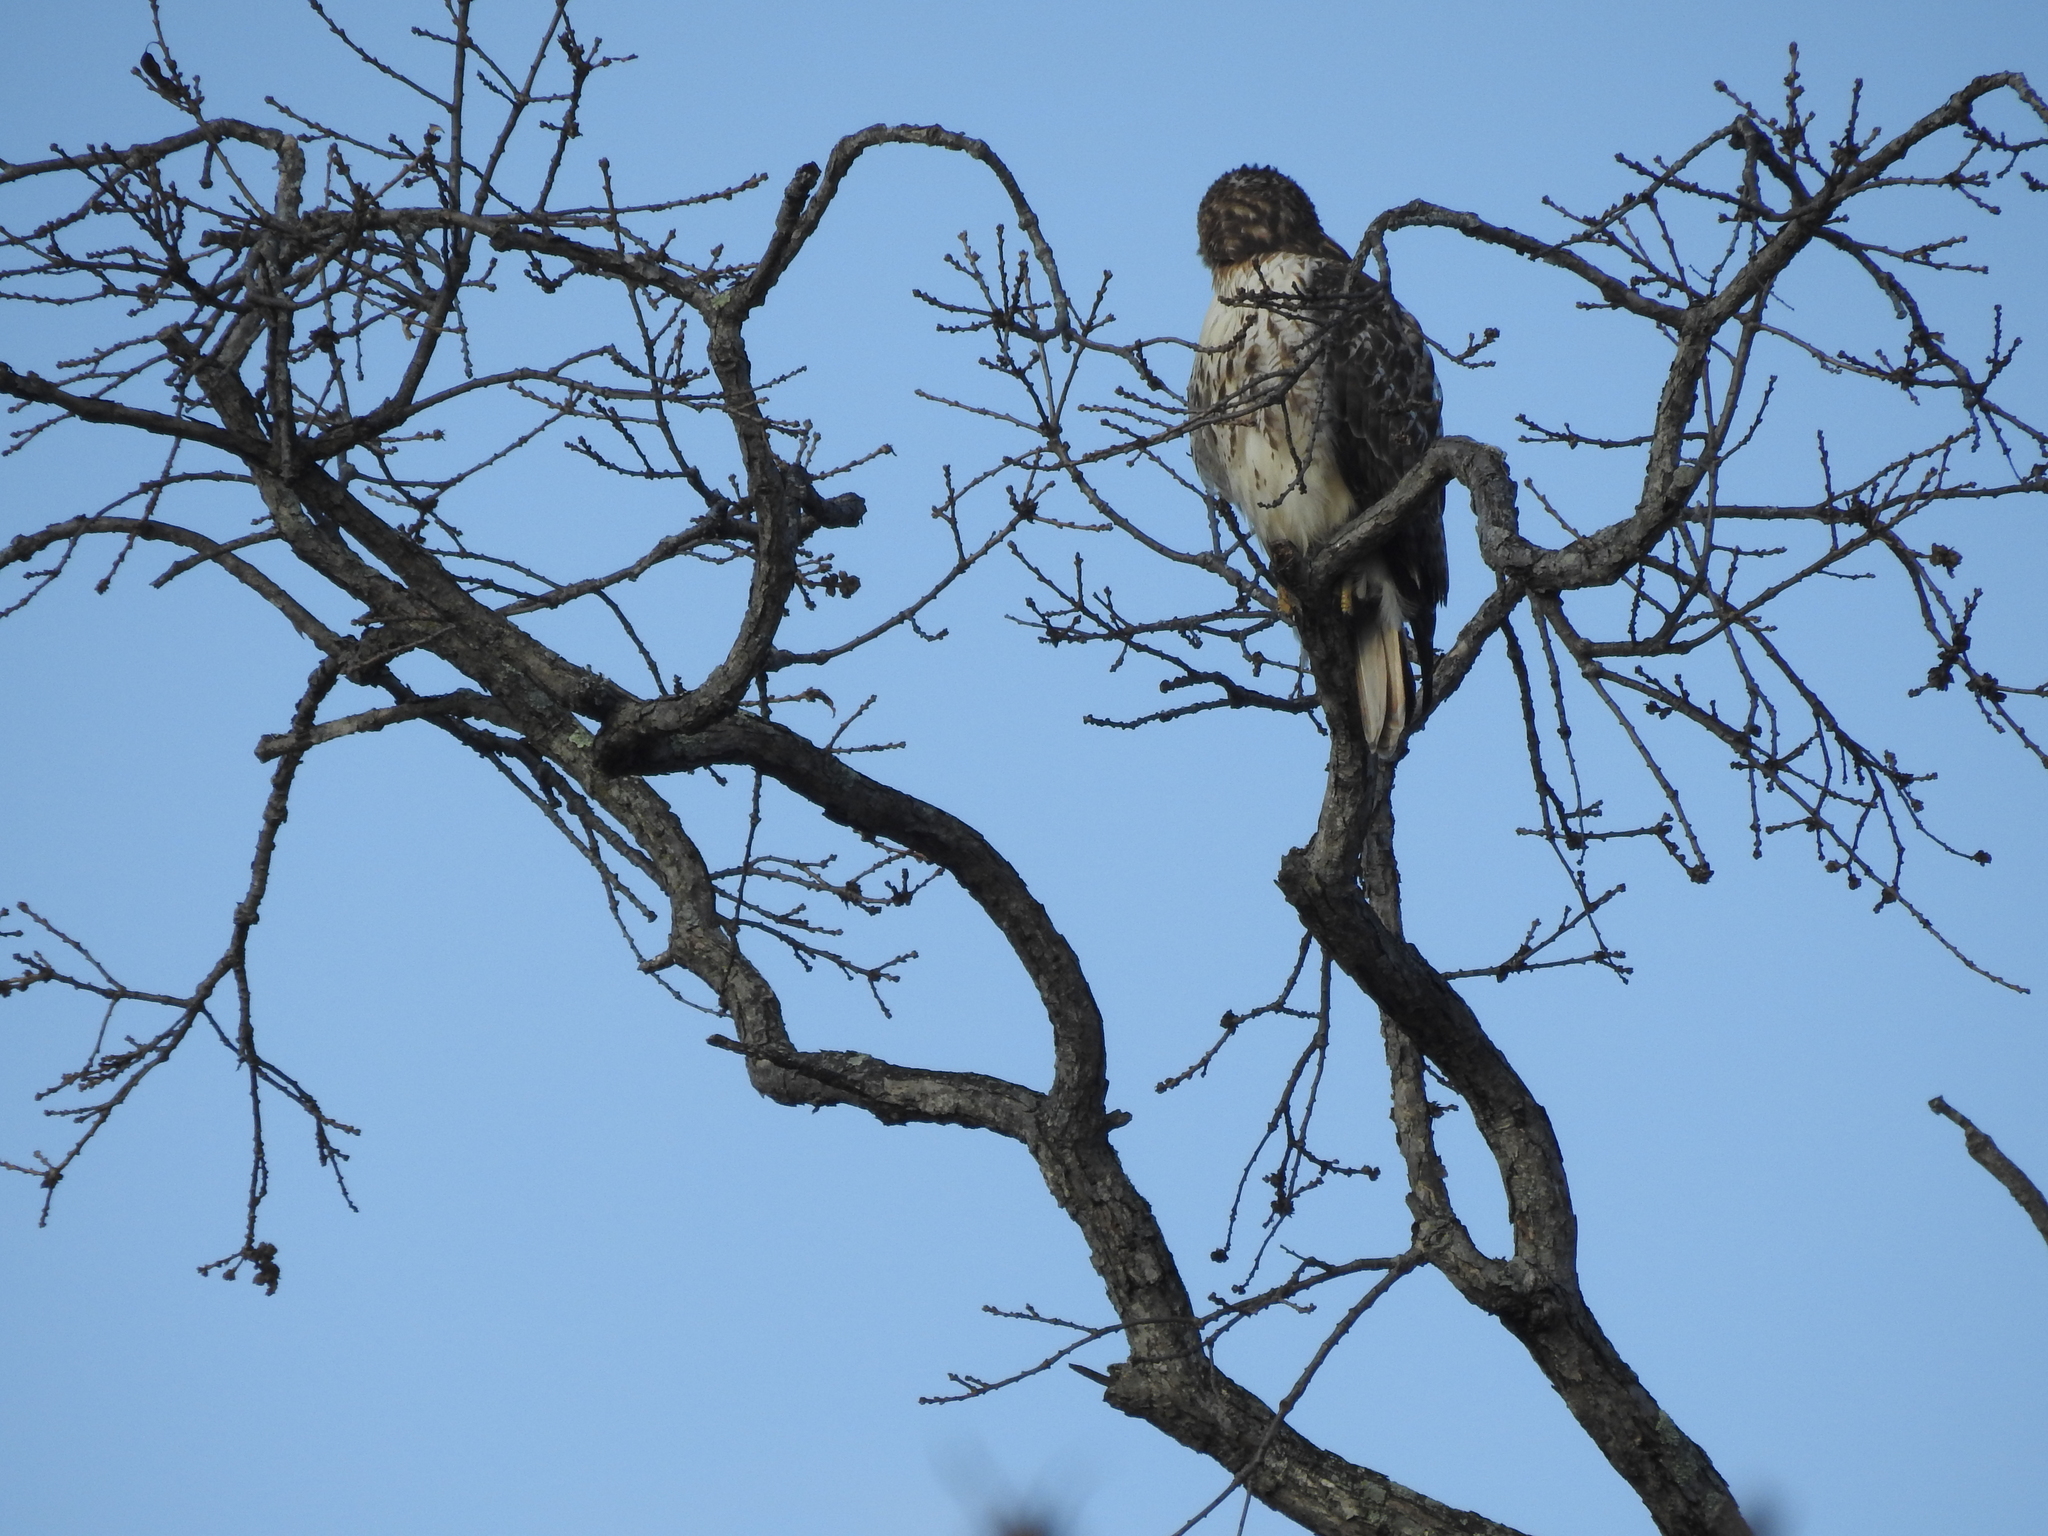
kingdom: Animalia
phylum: Chordata
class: Aves
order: Accipitriformes
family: Accipitridae
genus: Buteo
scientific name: Buteo jamaicensis
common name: Red-tailed hawk
